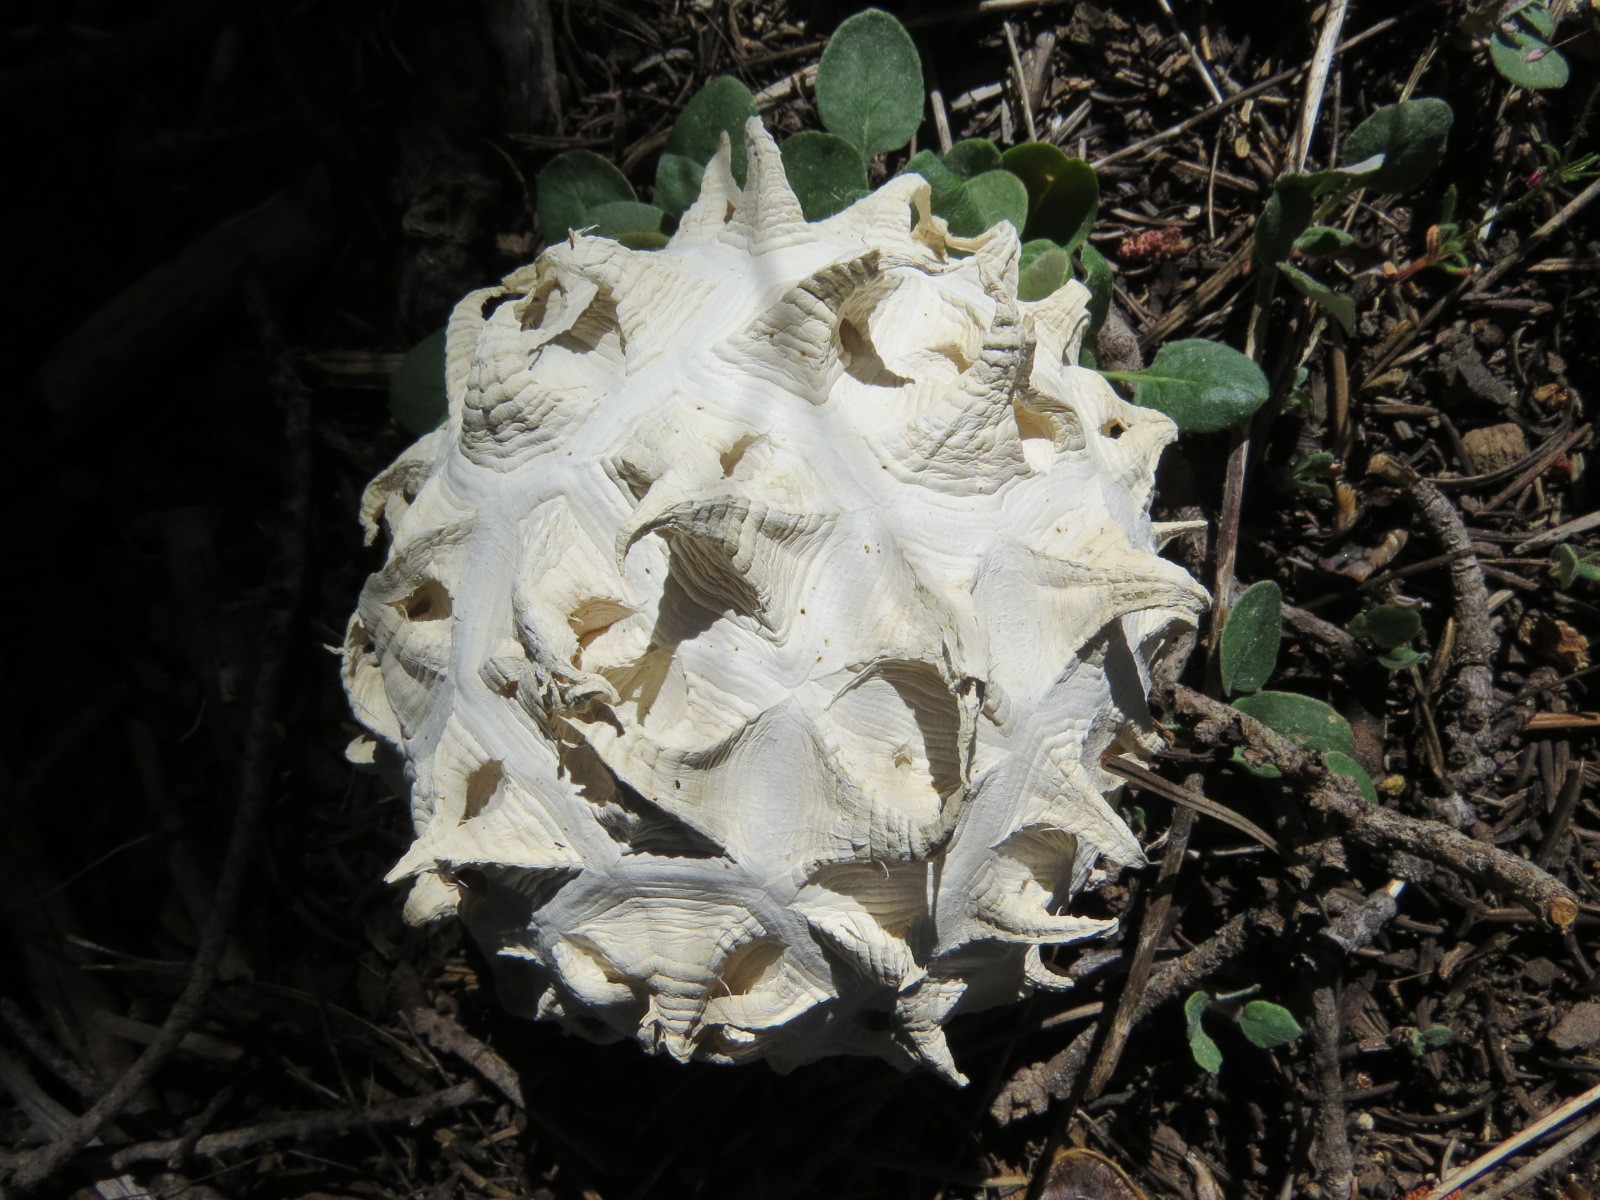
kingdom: Fungi
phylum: Basidiomycota
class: Agaricomycetes
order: Agaricales
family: Lycoperdaceae
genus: Calvatia
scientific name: Calvatia sculpta
